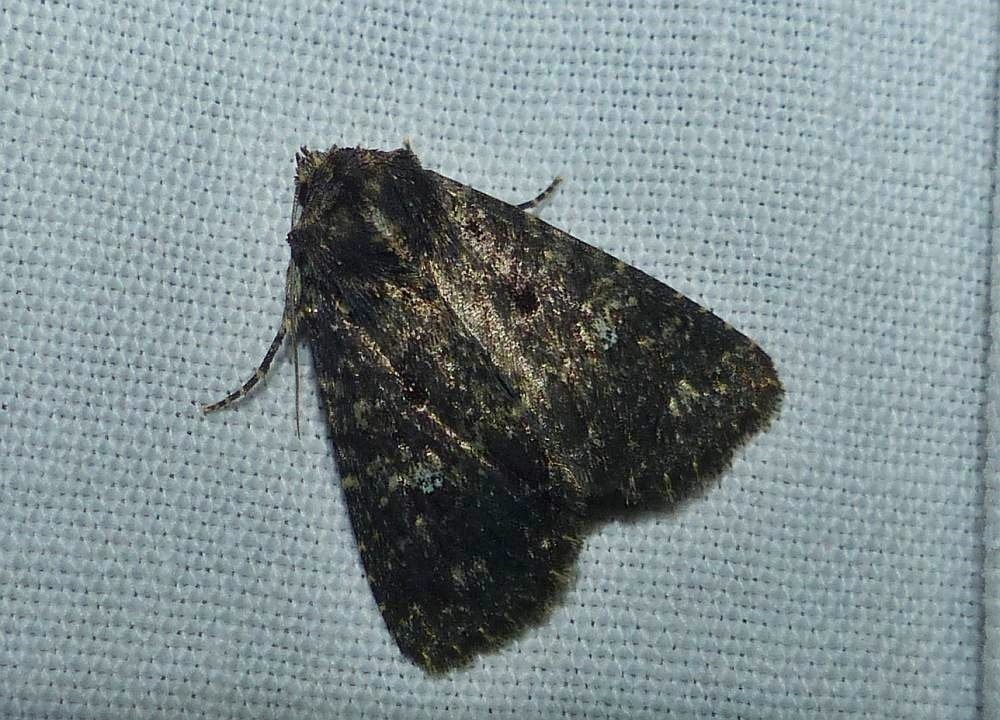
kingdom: Animalia
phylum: Arthropoda
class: Insecta
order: Lepidoptera
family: Noctuidae
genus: Condica
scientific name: Condica vecors
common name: Dusky groundling
